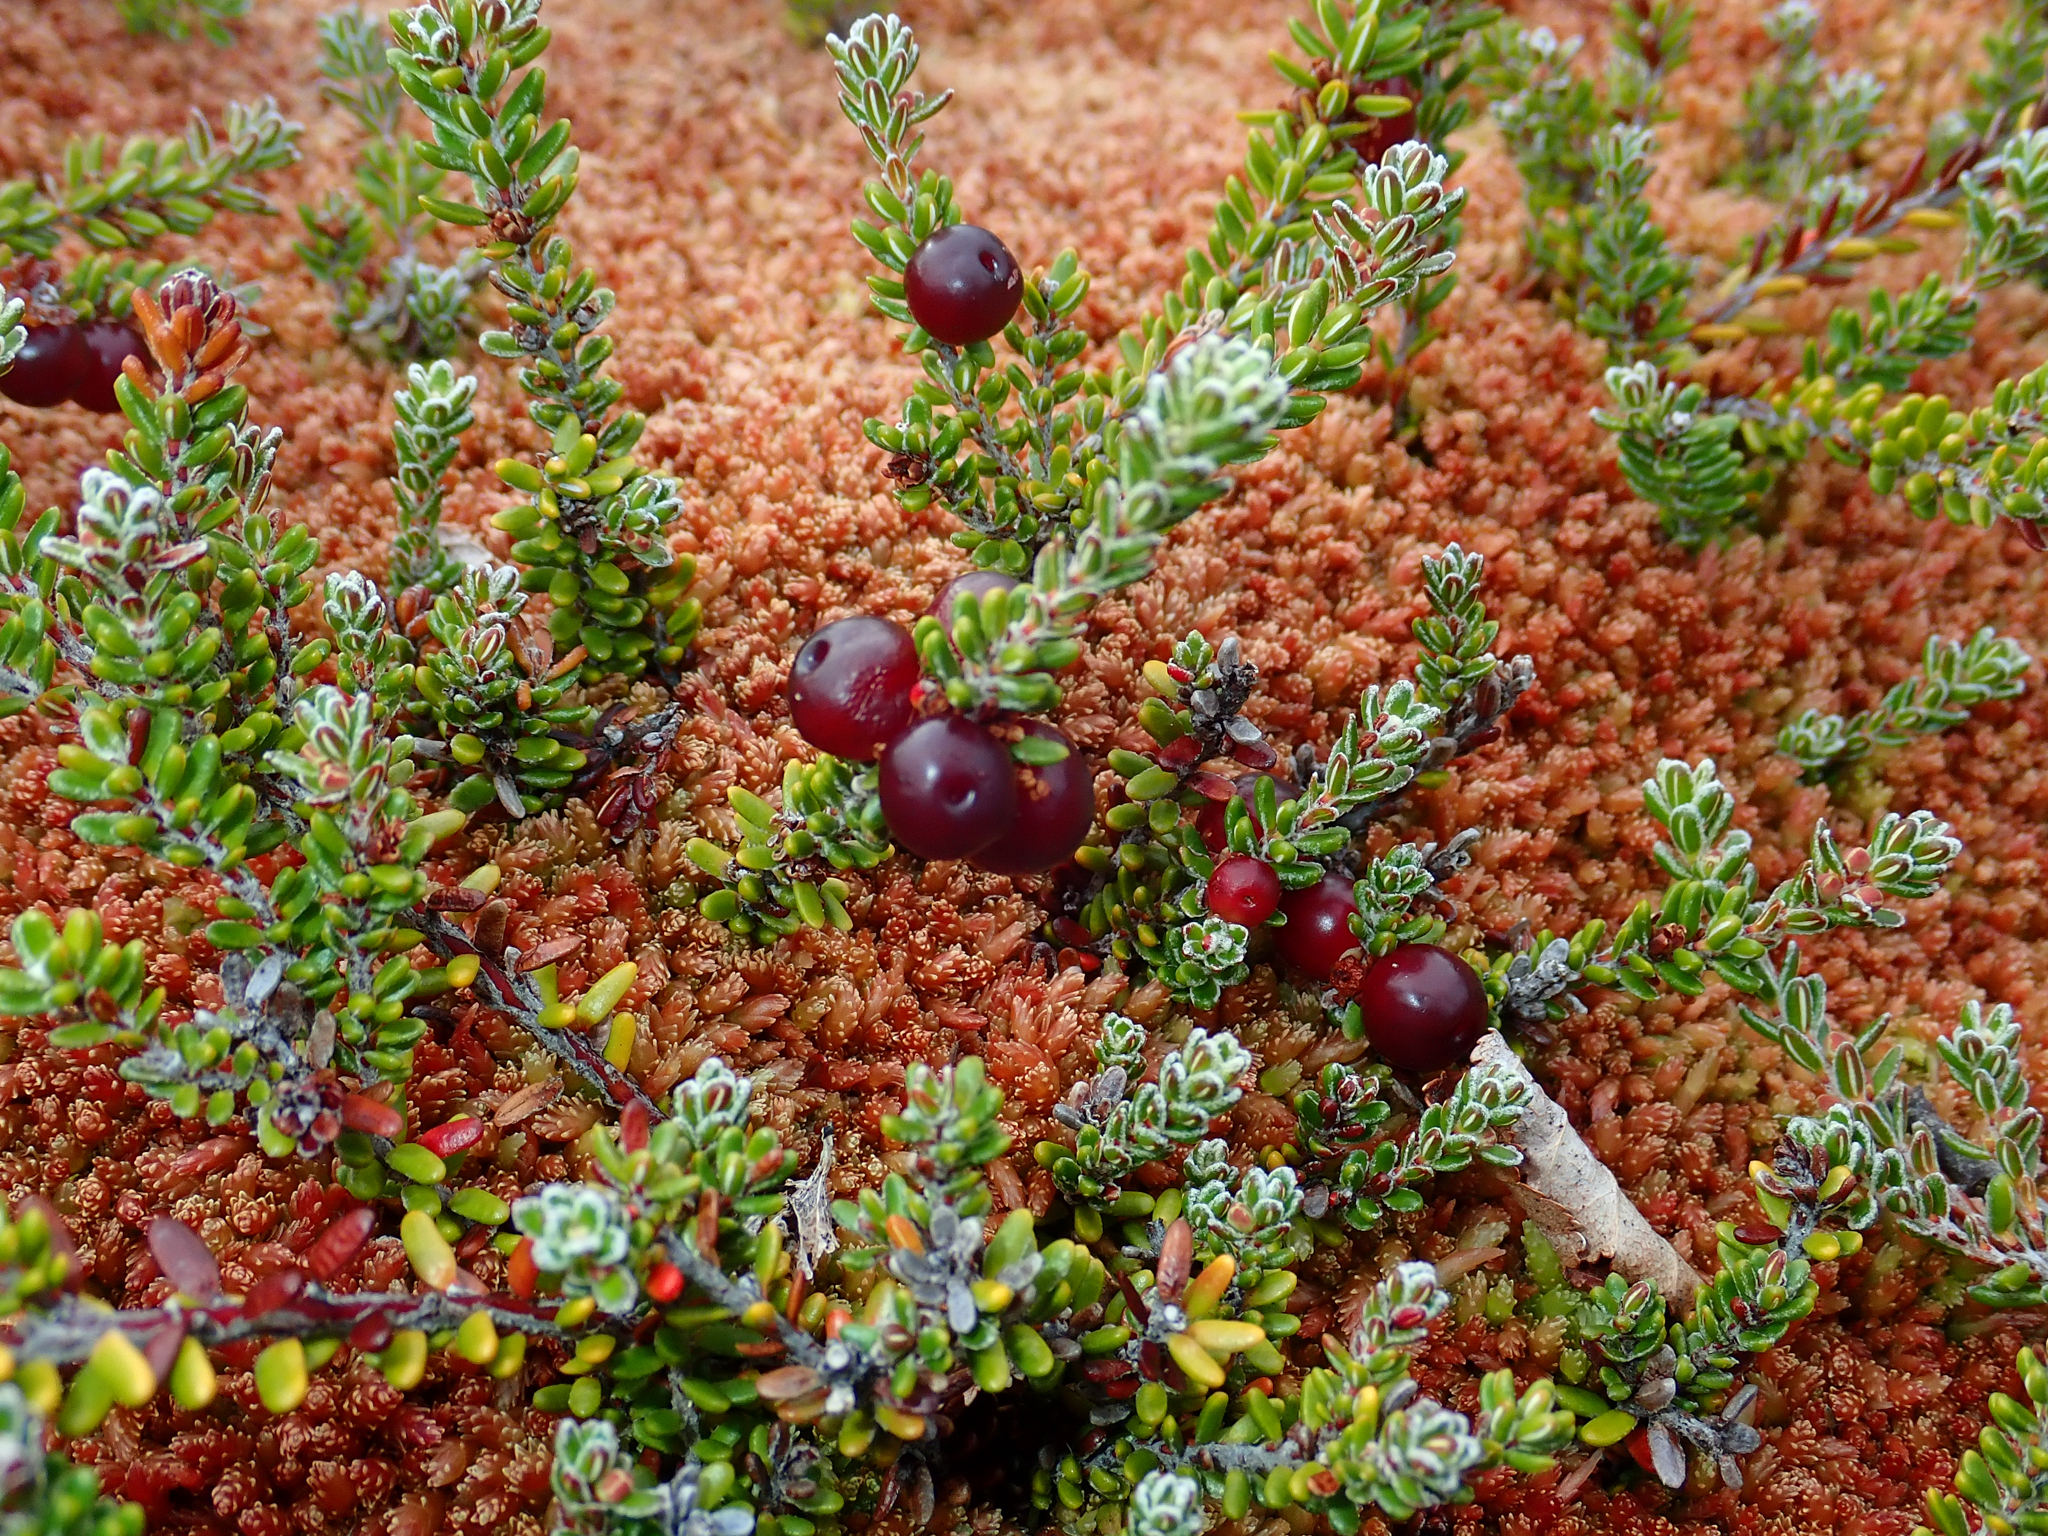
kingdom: Plantae
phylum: Tracheophyta
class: Magnoliopsida
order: Ericales
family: Ericaceae
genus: Empetrum
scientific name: Empetrum rubrum
